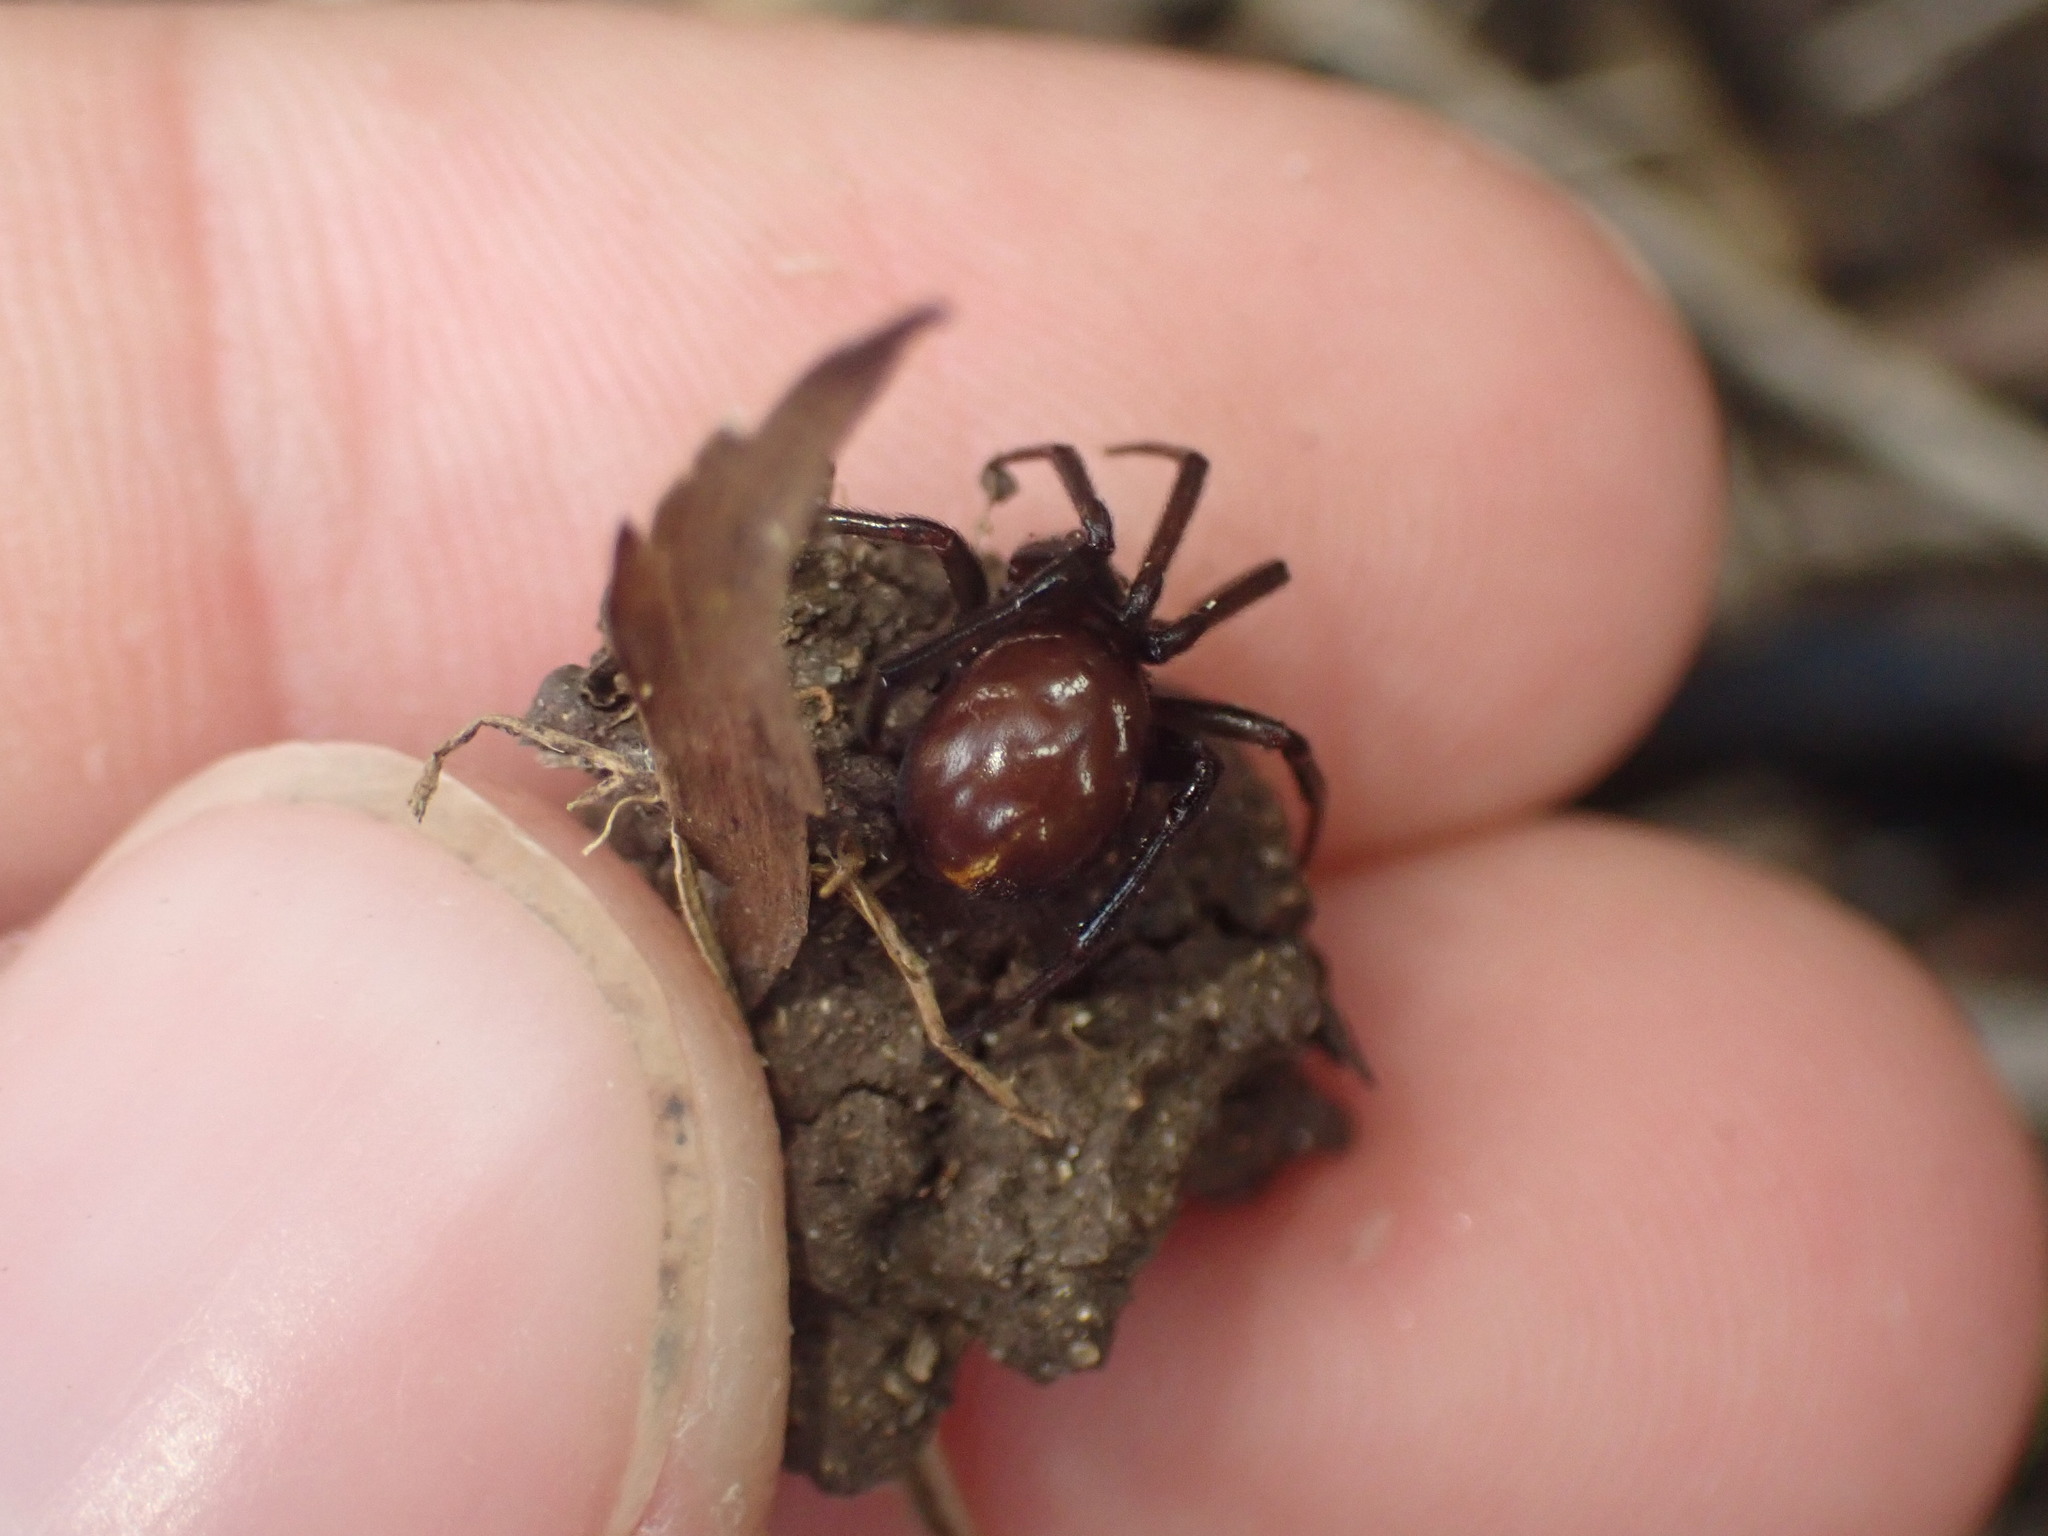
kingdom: Animalia
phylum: Arthropoda
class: Arachnida
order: Araneae
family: Theridiidae
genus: Steatoda
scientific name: Steatoda capensis
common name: Cobweb weaver
